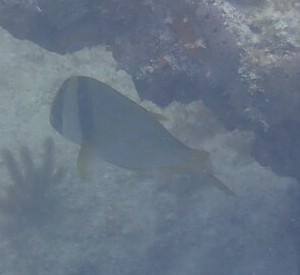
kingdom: Animalia
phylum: Chordata
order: Perciformes
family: Haemulidae
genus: Anisotremus
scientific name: Anisotremus virginicus
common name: Porkfish
